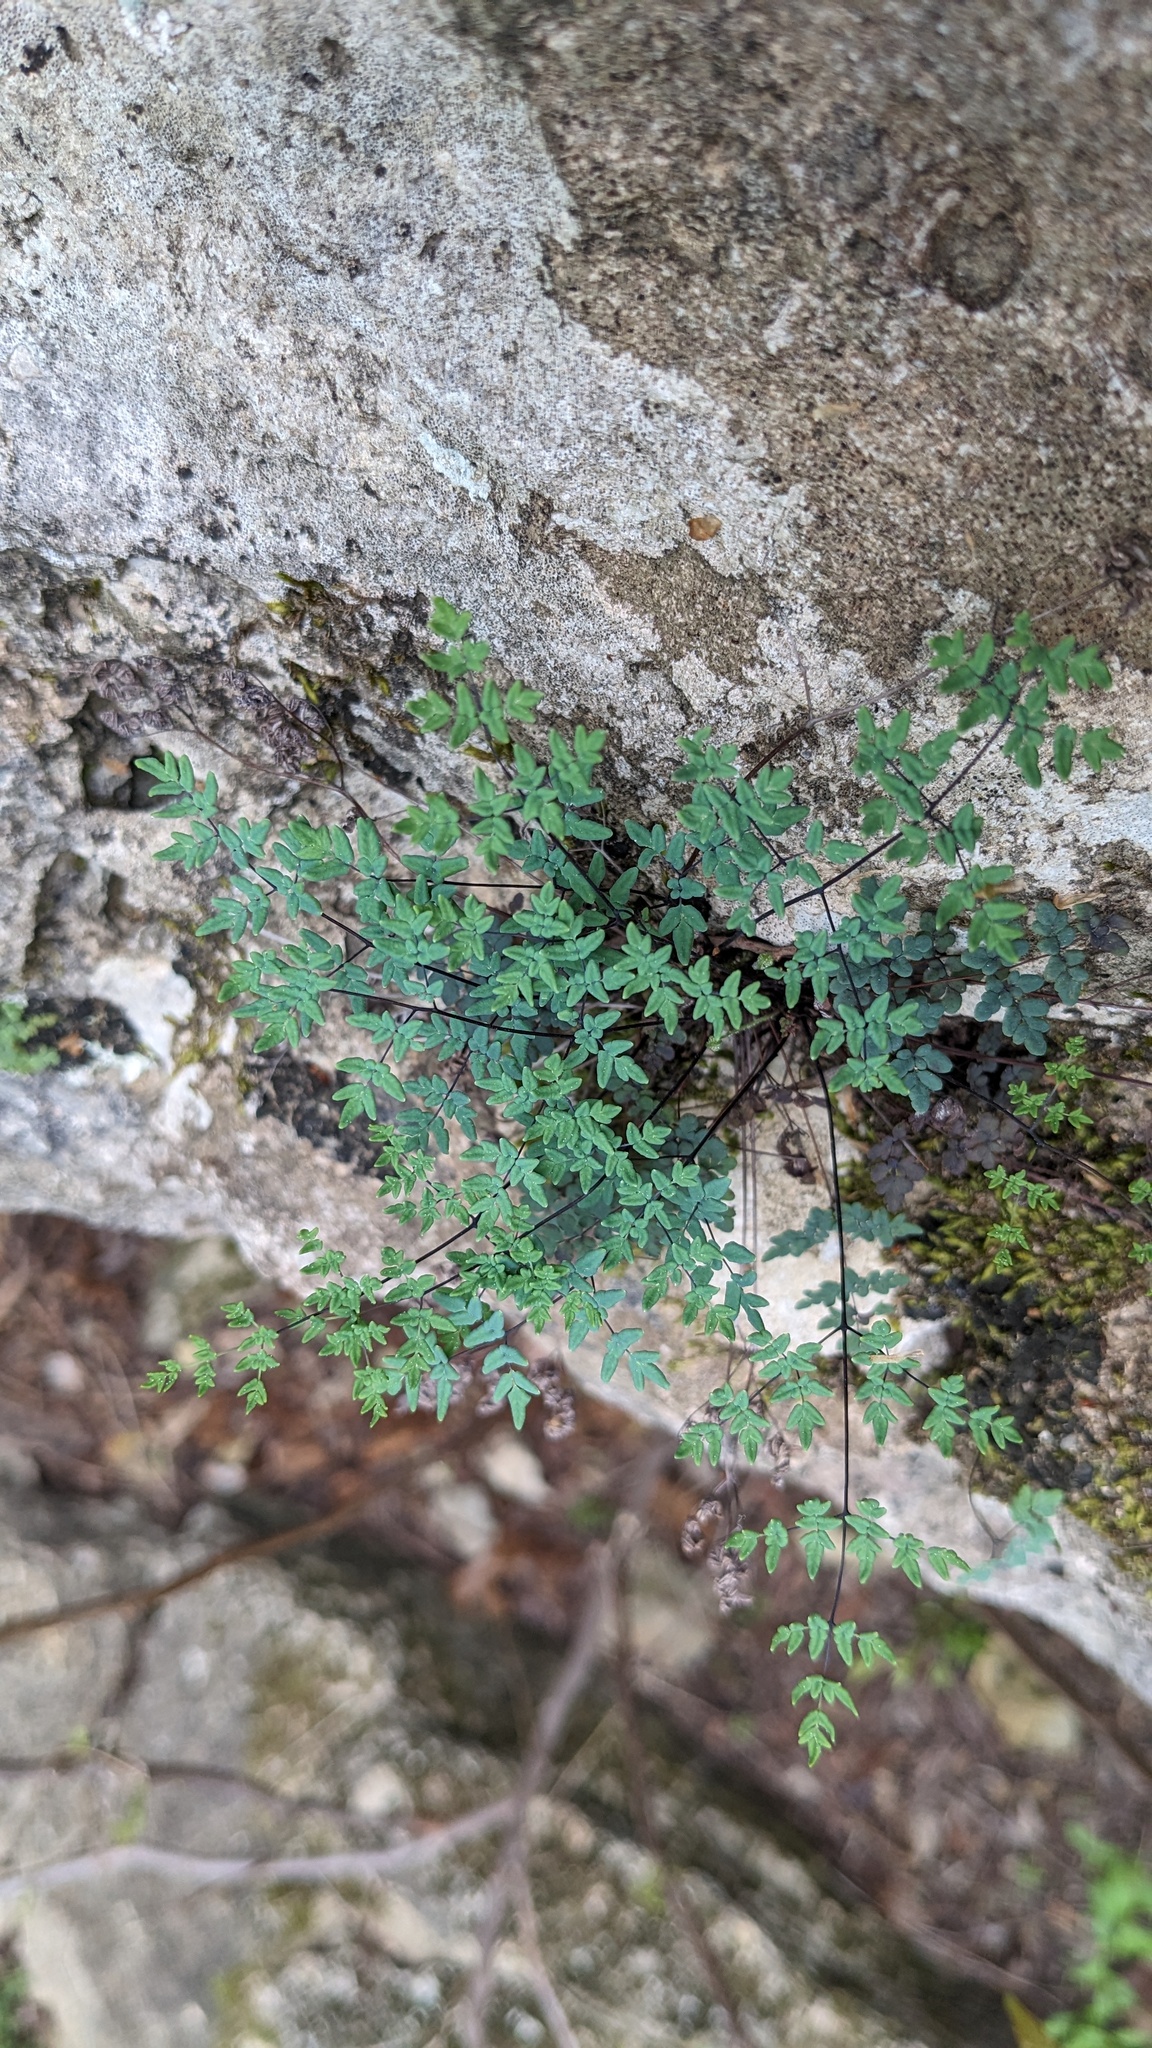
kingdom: Plantae
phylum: Tracheophyta
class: Polypodiopsida
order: Polypodiales
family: Pteridaceae
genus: Argyrochosma
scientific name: Argyrochosma dealbata
